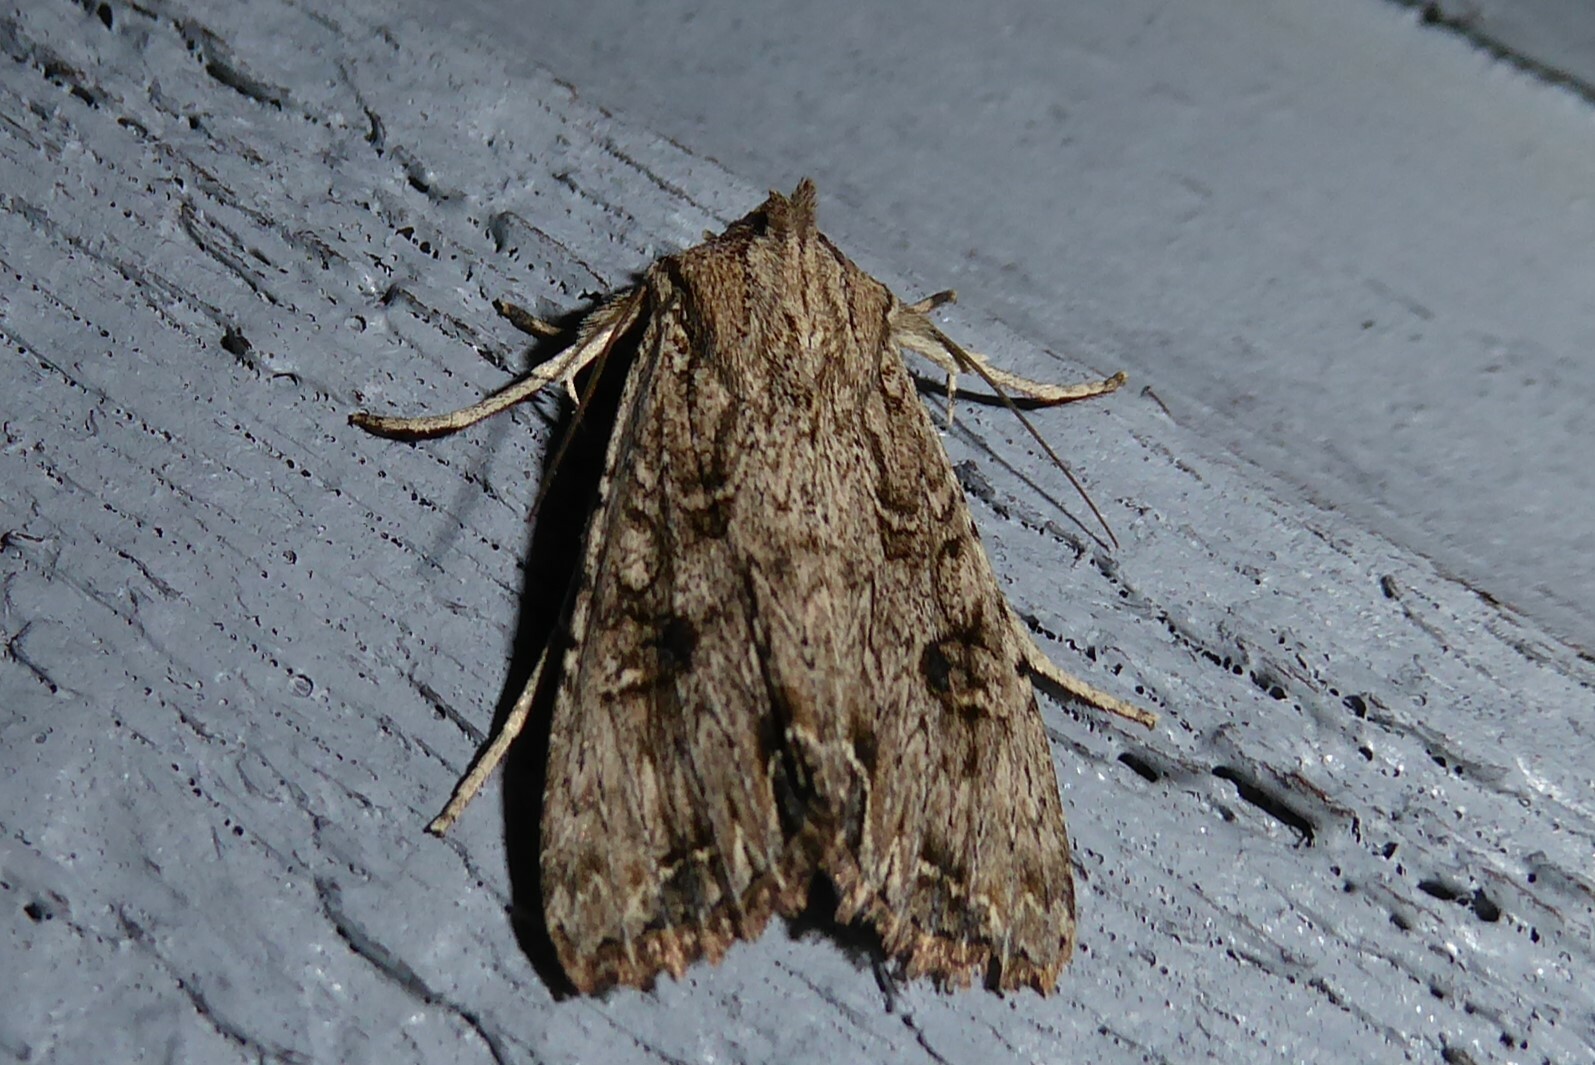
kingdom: Animalia
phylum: Arthropoda
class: Insecta
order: Lepidoptera
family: Noctuidae
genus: Ichneutica
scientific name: Ichneutica lignana
